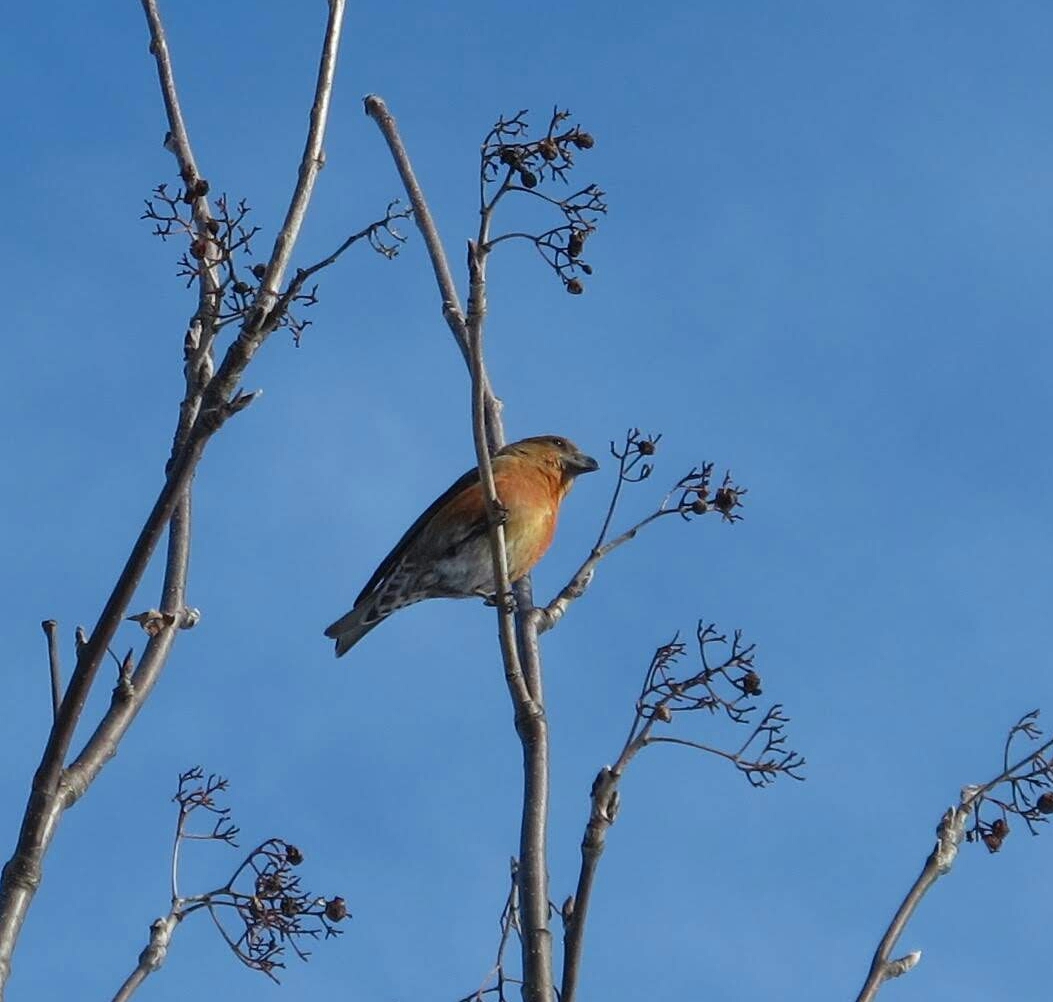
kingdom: Animalia
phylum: Chordata
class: Aves
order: Passeriformes
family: Fringillidae
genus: Loxia
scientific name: Loxia curvirostra
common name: Red crossbill
